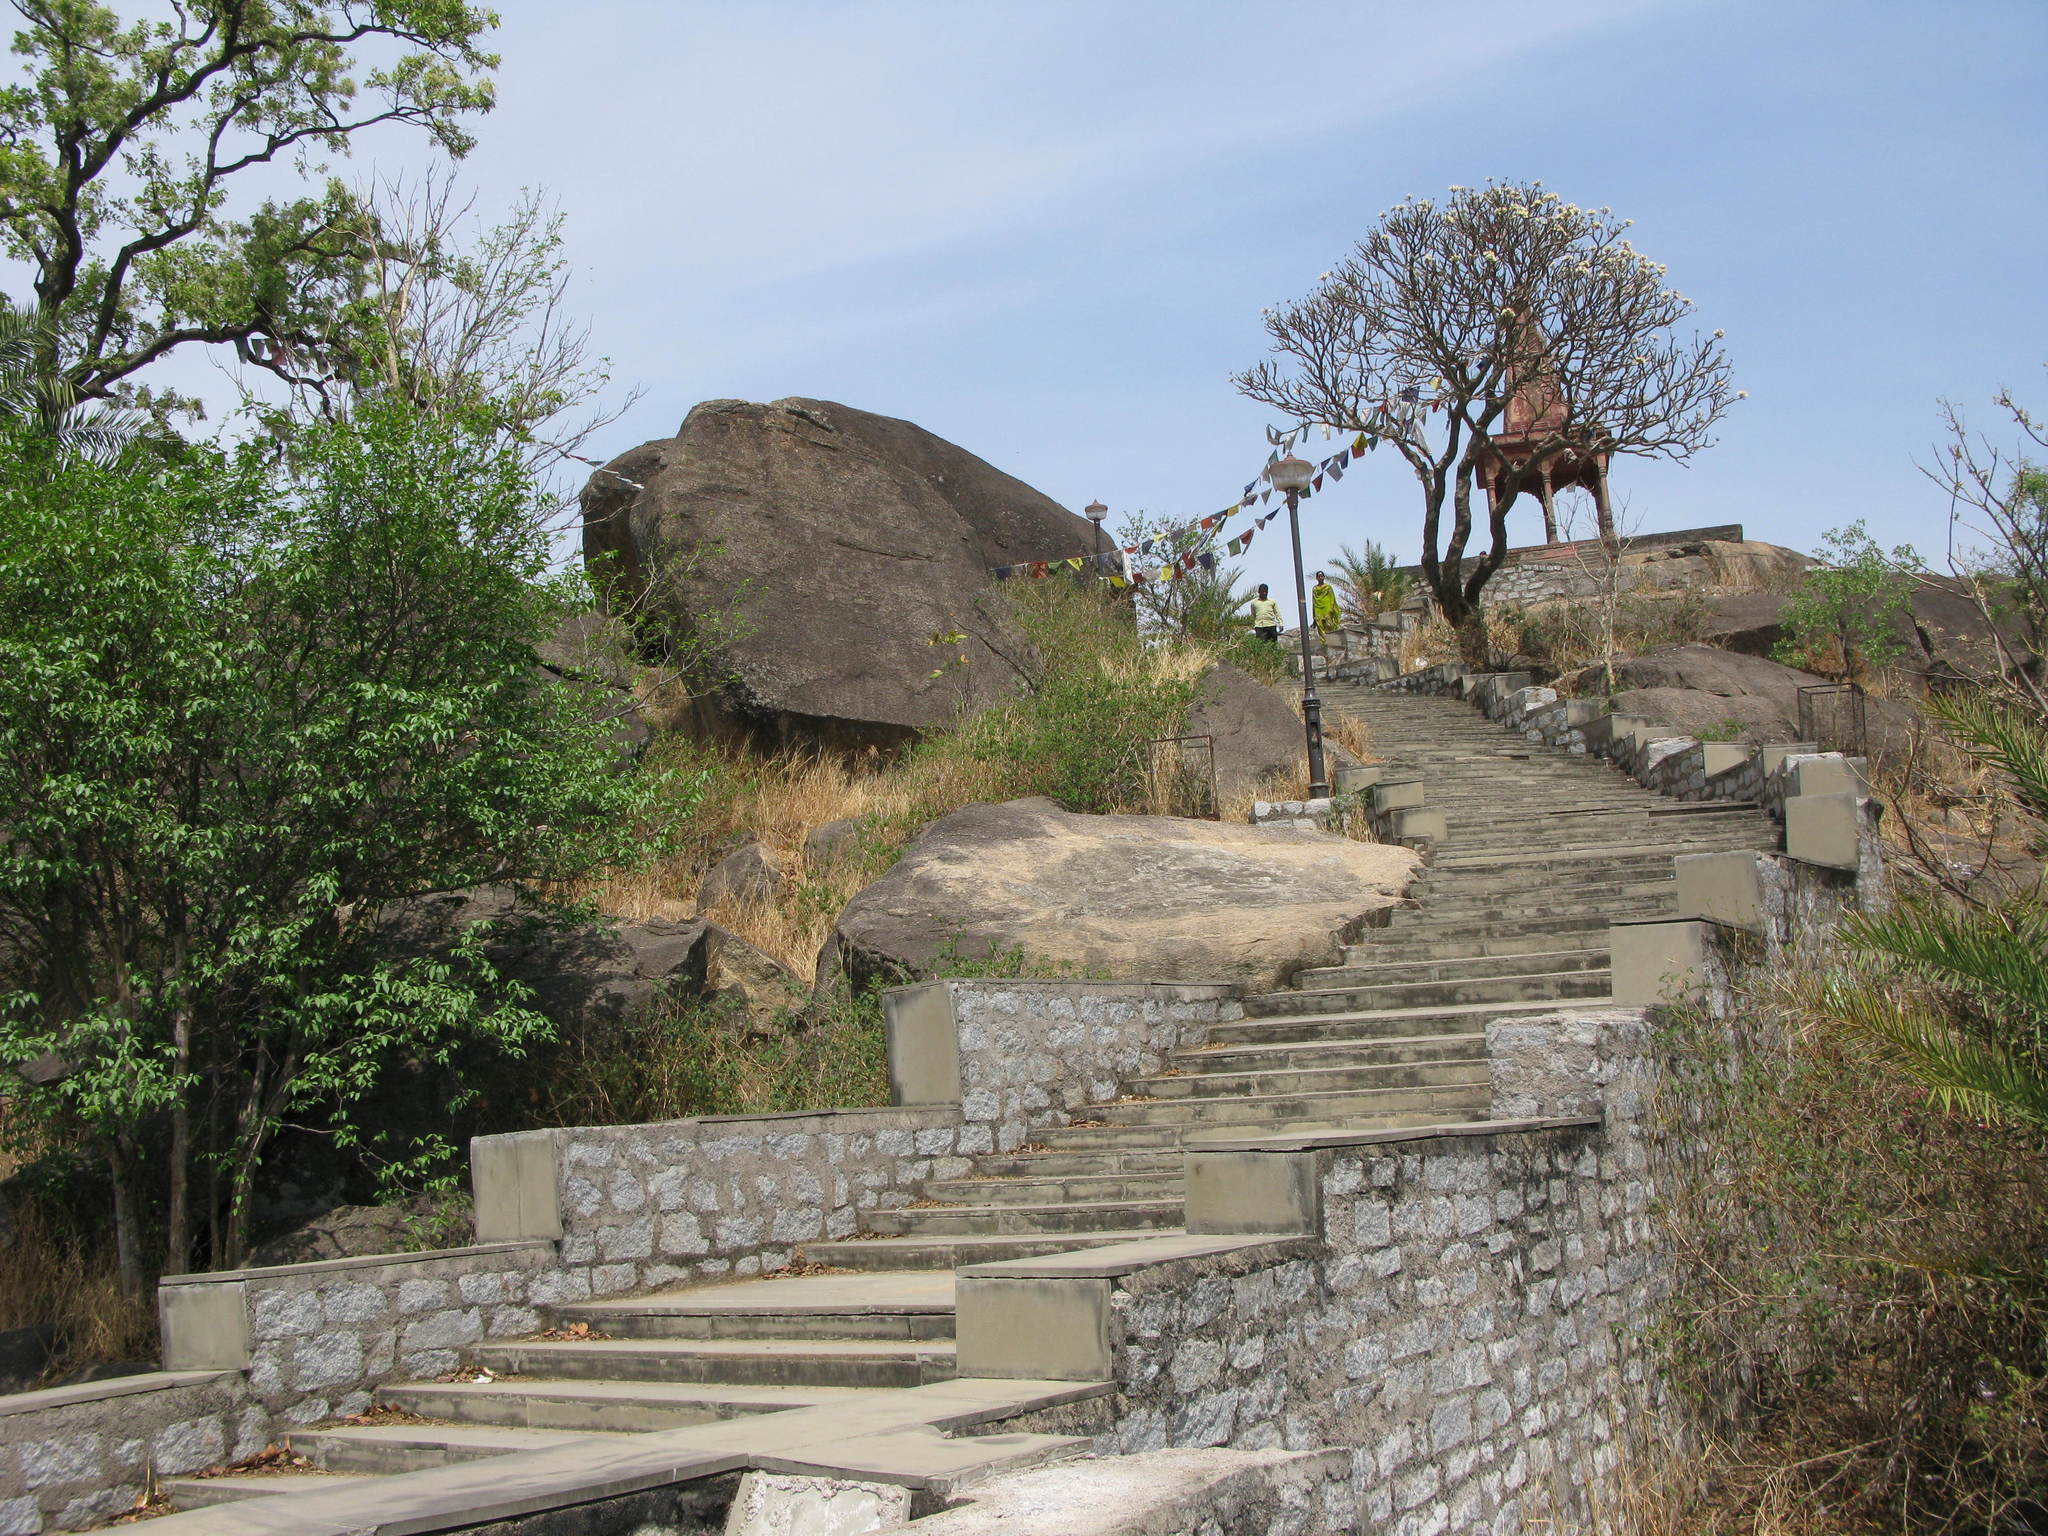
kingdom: Plantae
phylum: Tracheophyta
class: Magnoliopsida
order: Gentianales
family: Apocynaceae
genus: Plumeria
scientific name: Plumeria obtusa
